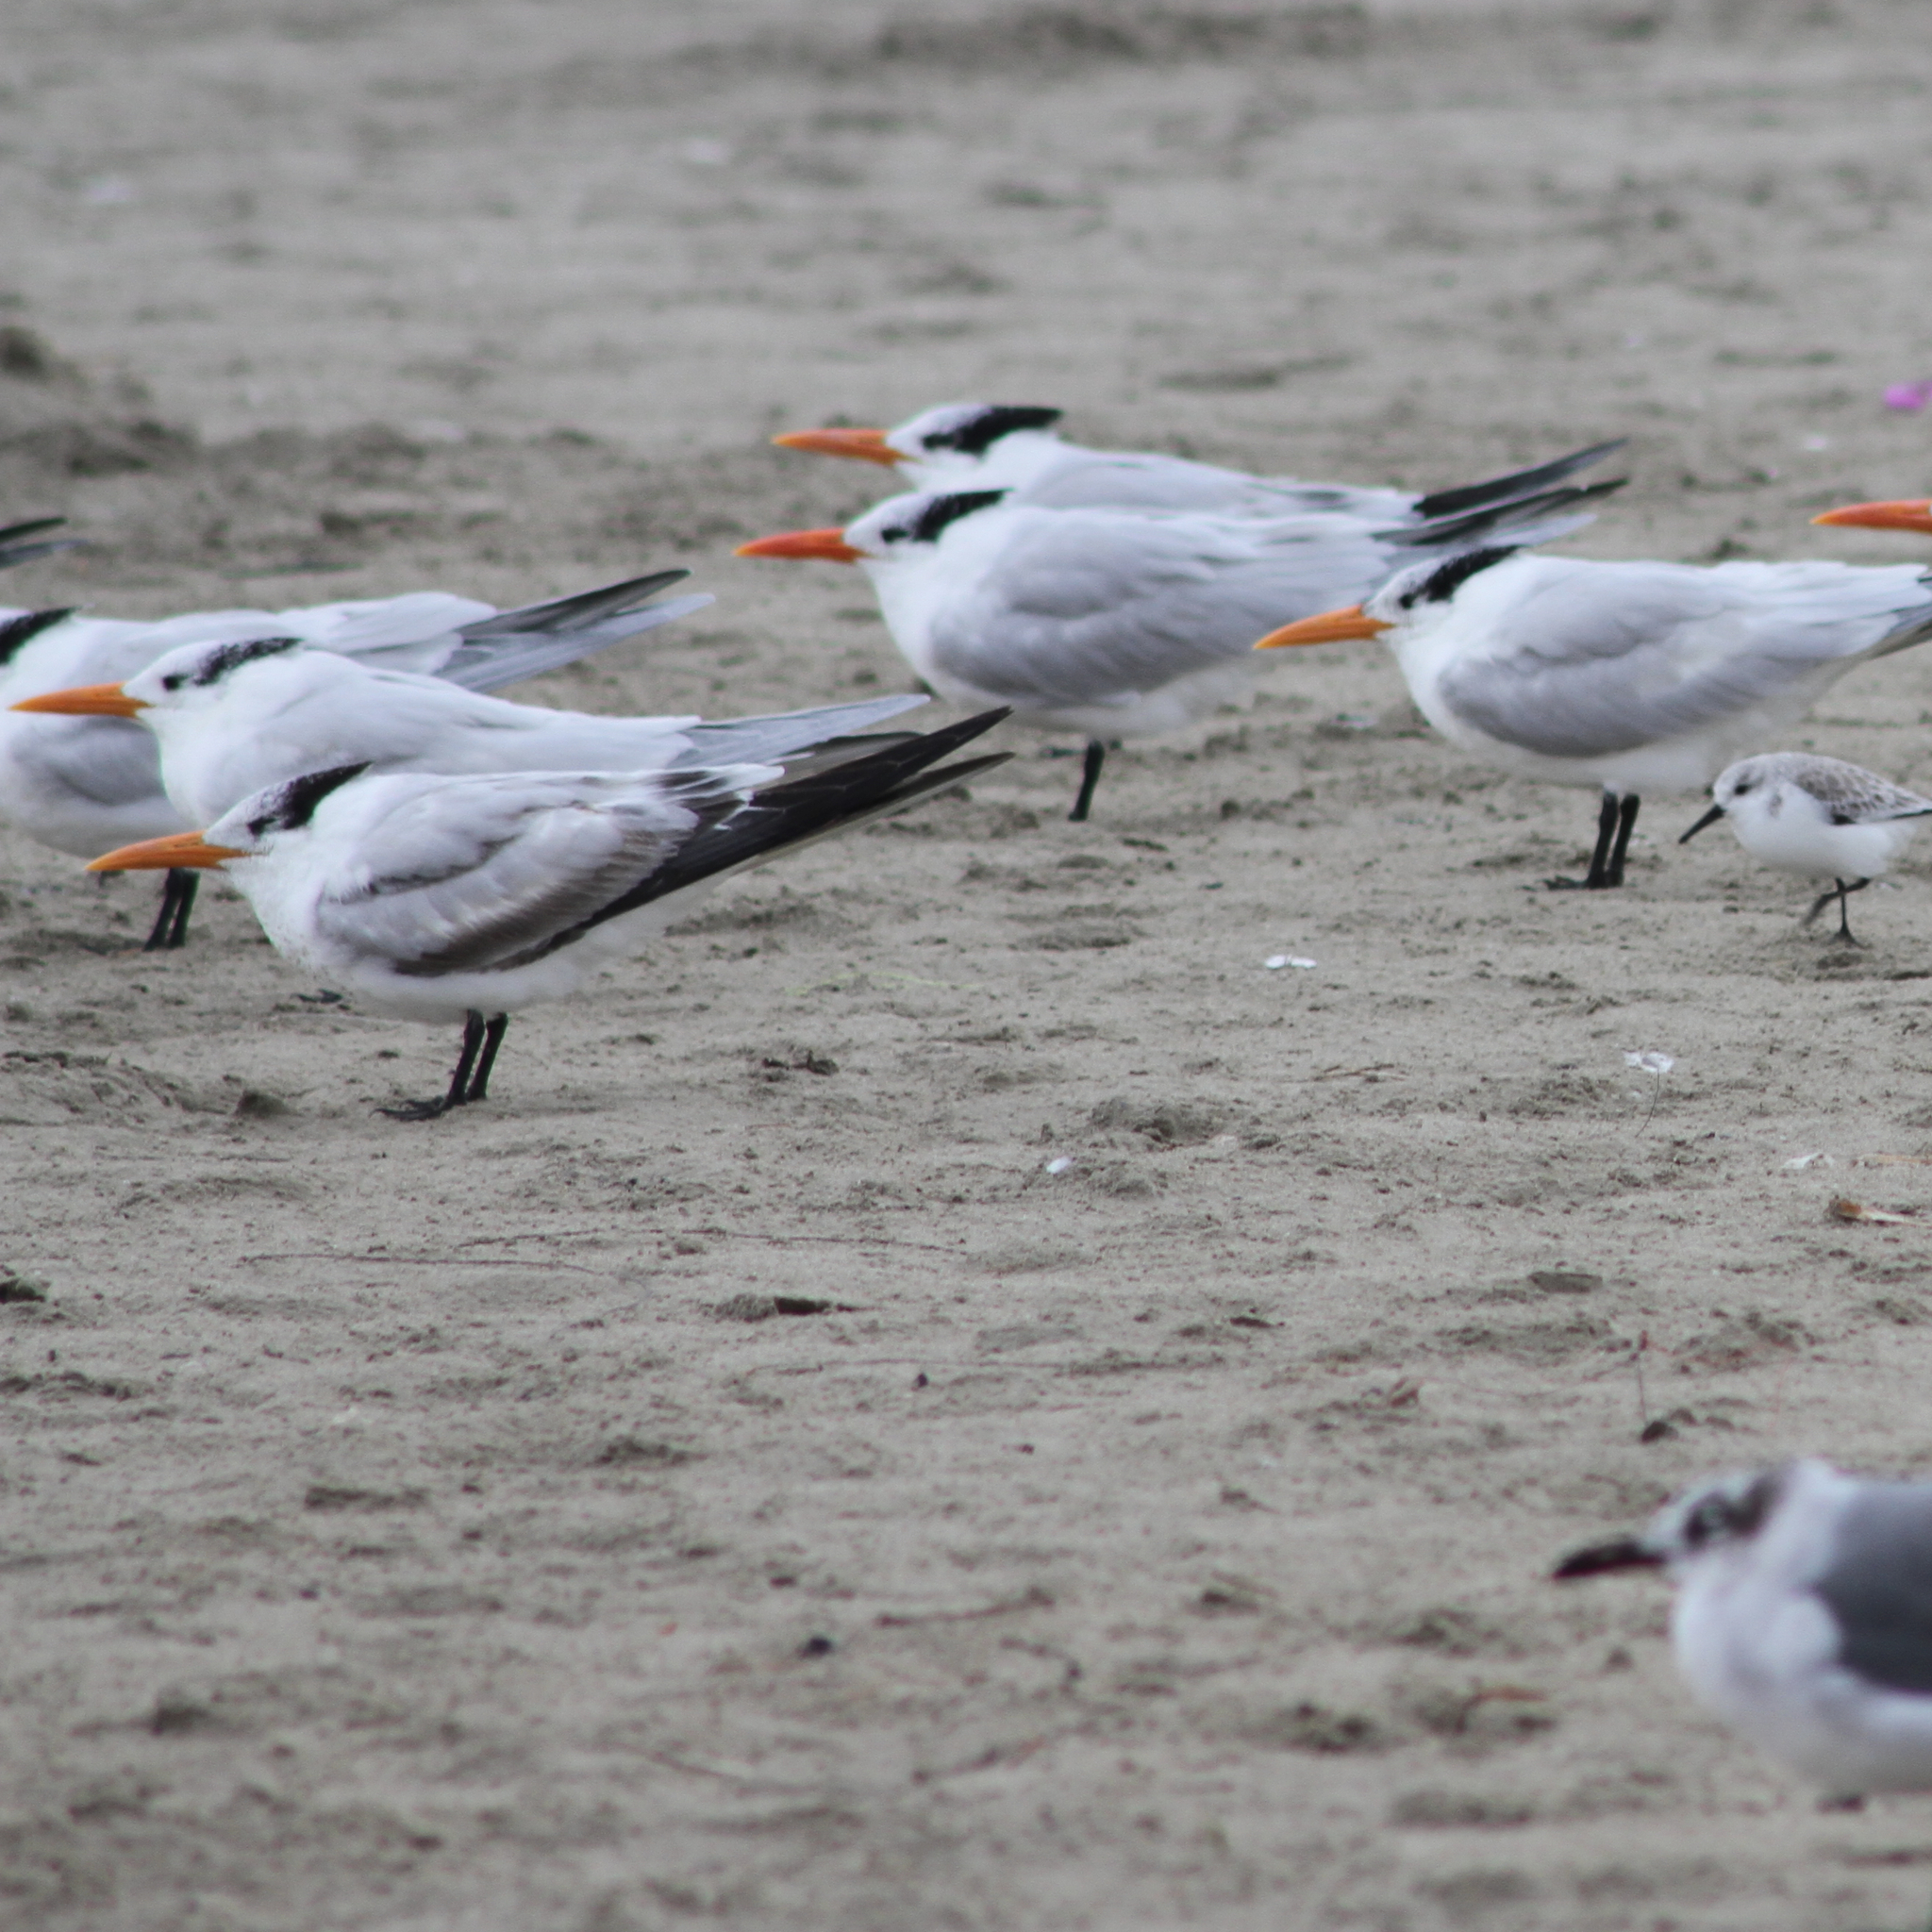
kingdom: Animalia
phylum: Chordata
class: Aves
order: Charadriiformes
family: Laridae
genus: Thalasseus
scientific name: Thalasseus maximus
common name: Royal tern
